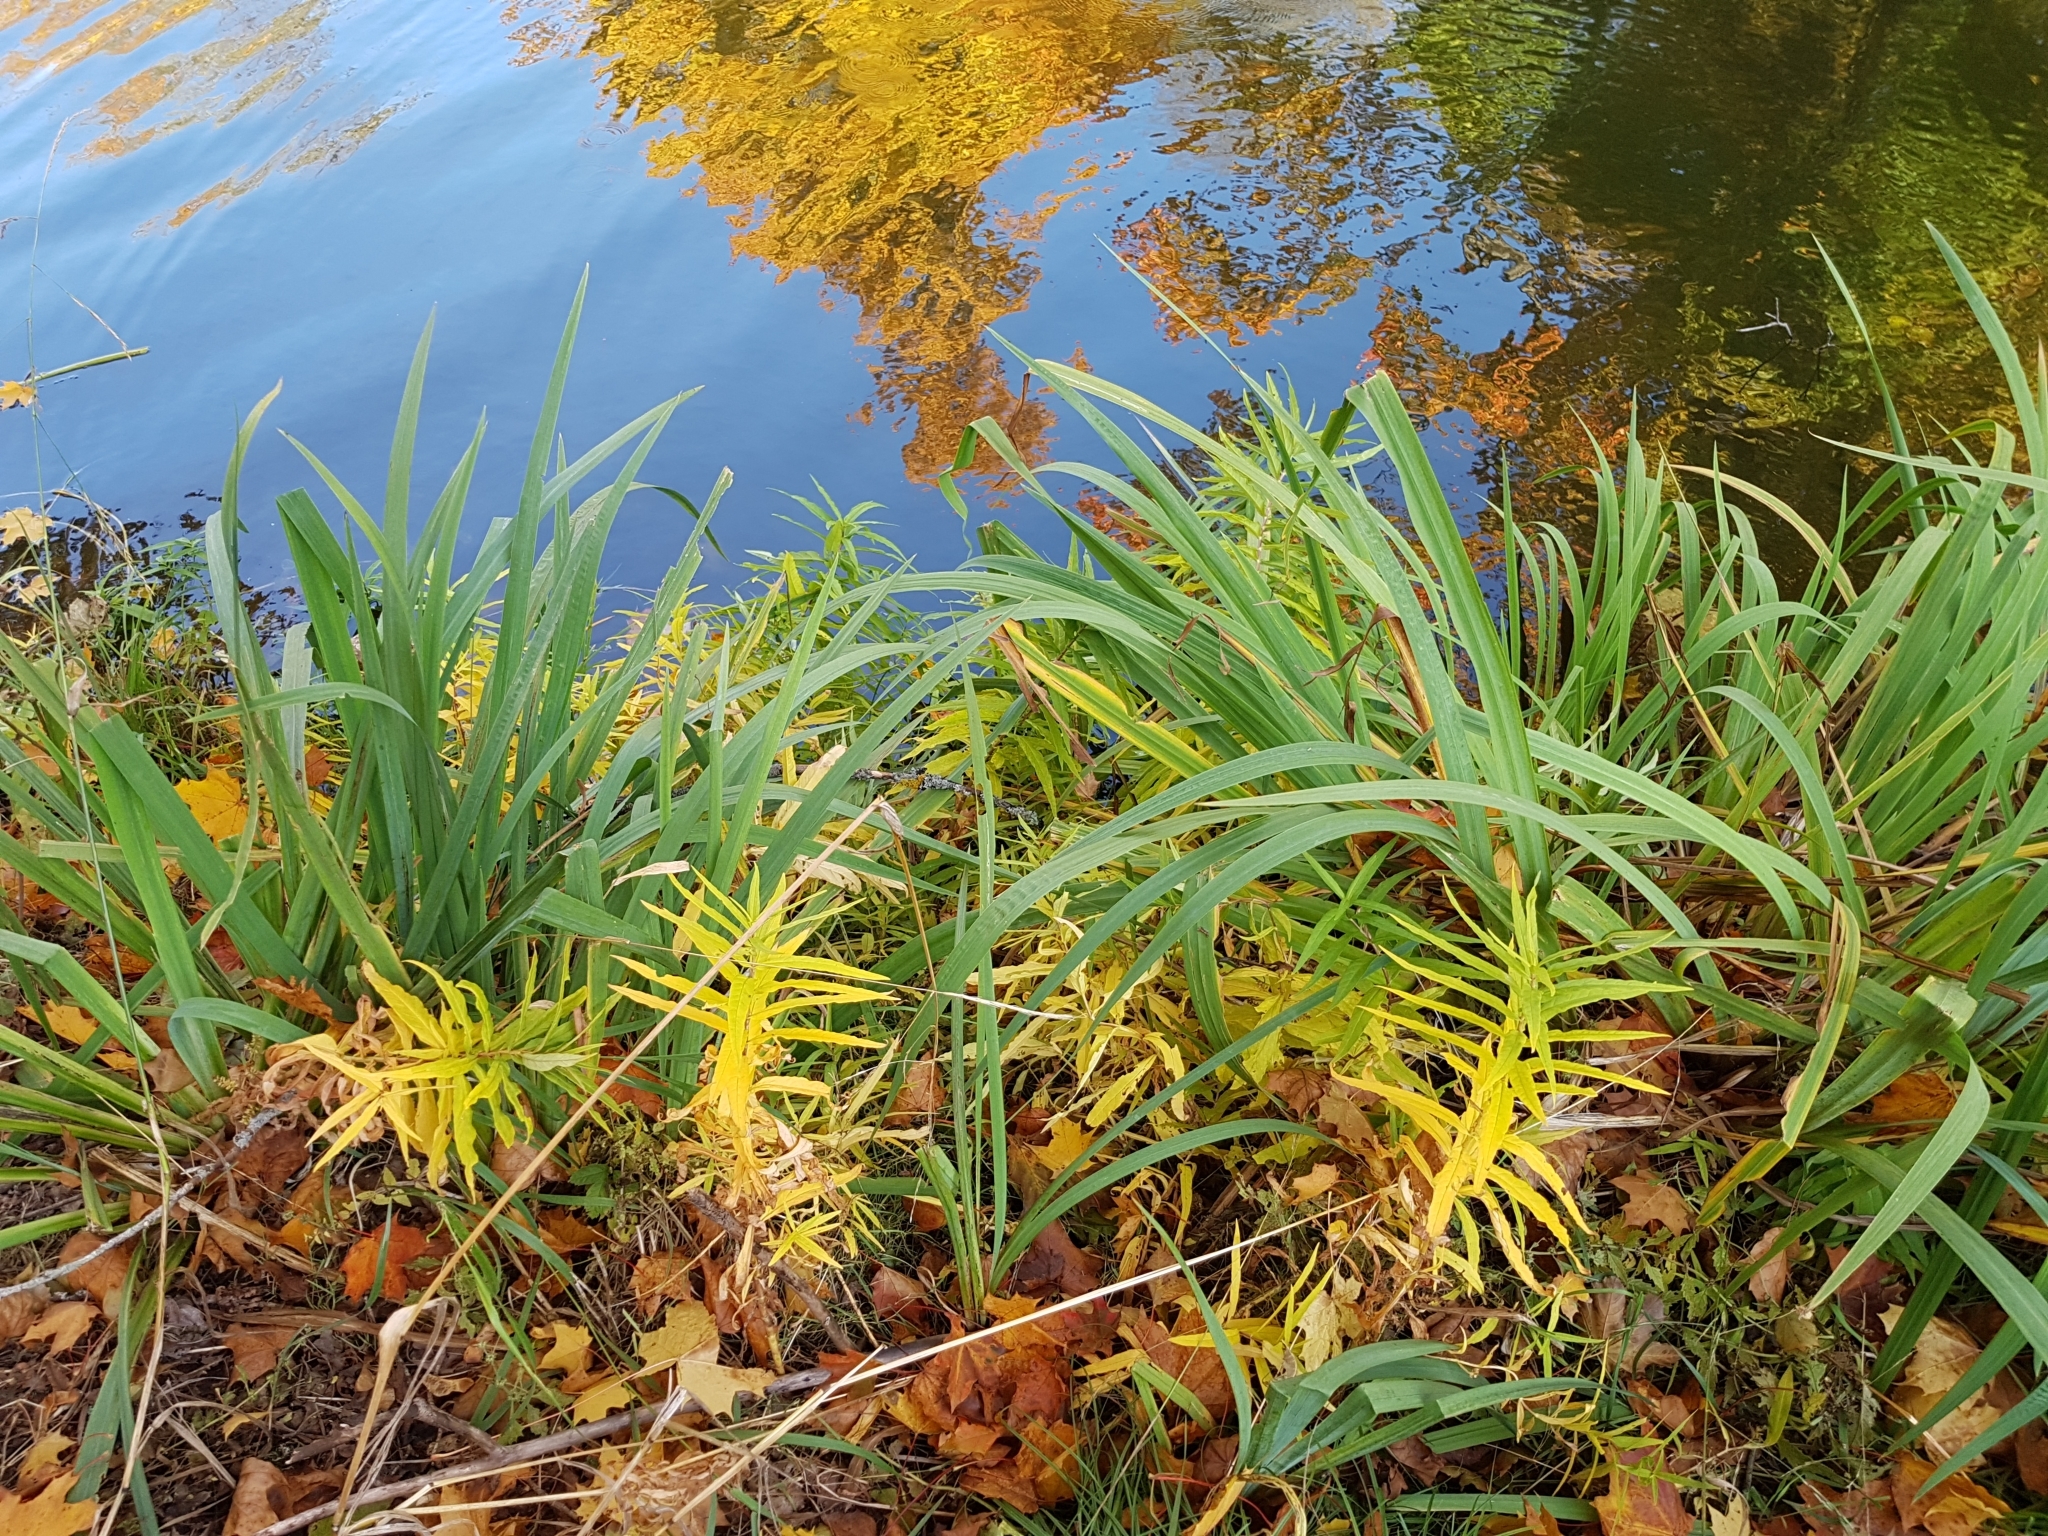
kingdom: Plantae
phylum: Tracheophyta
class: Magnoliopsida
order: Ericales
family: Primulaceae
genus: Lysimachia
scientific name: Lysimachia thyrsiflora
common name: Tufted loosestrife
